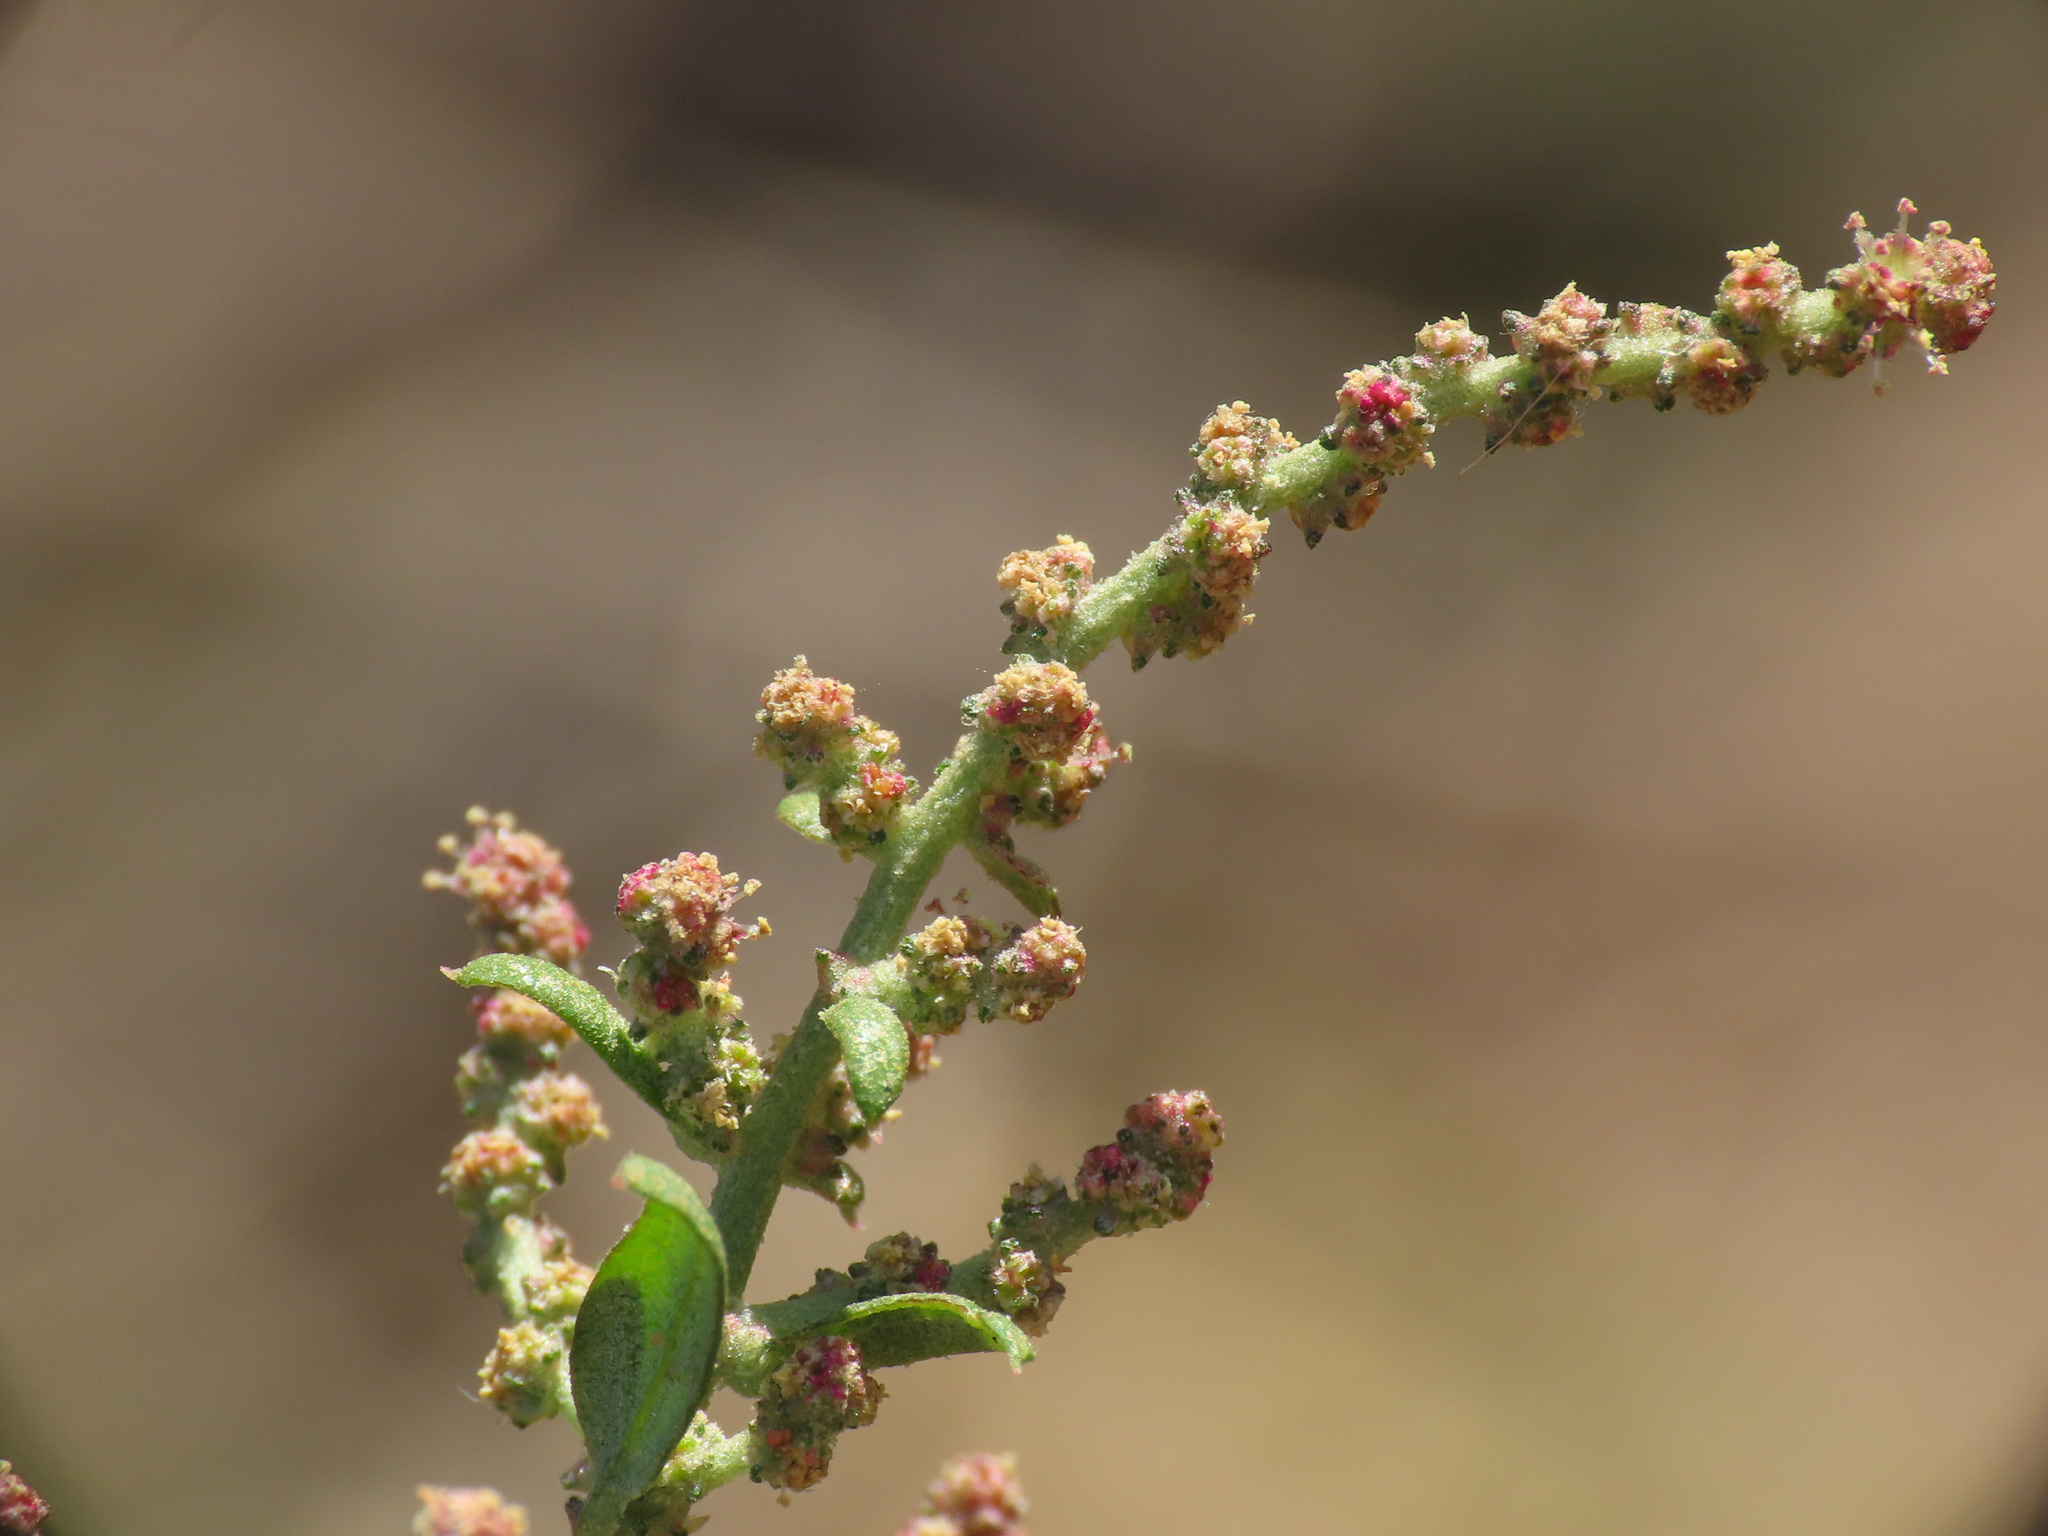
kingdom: Plantae
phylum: Tracheophyta
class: Magnoliopsida
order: Caryophyllales
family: Amaranthaceae
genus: Atriplex
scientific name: Atriplex prostrata
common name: Spear-leaved orache
